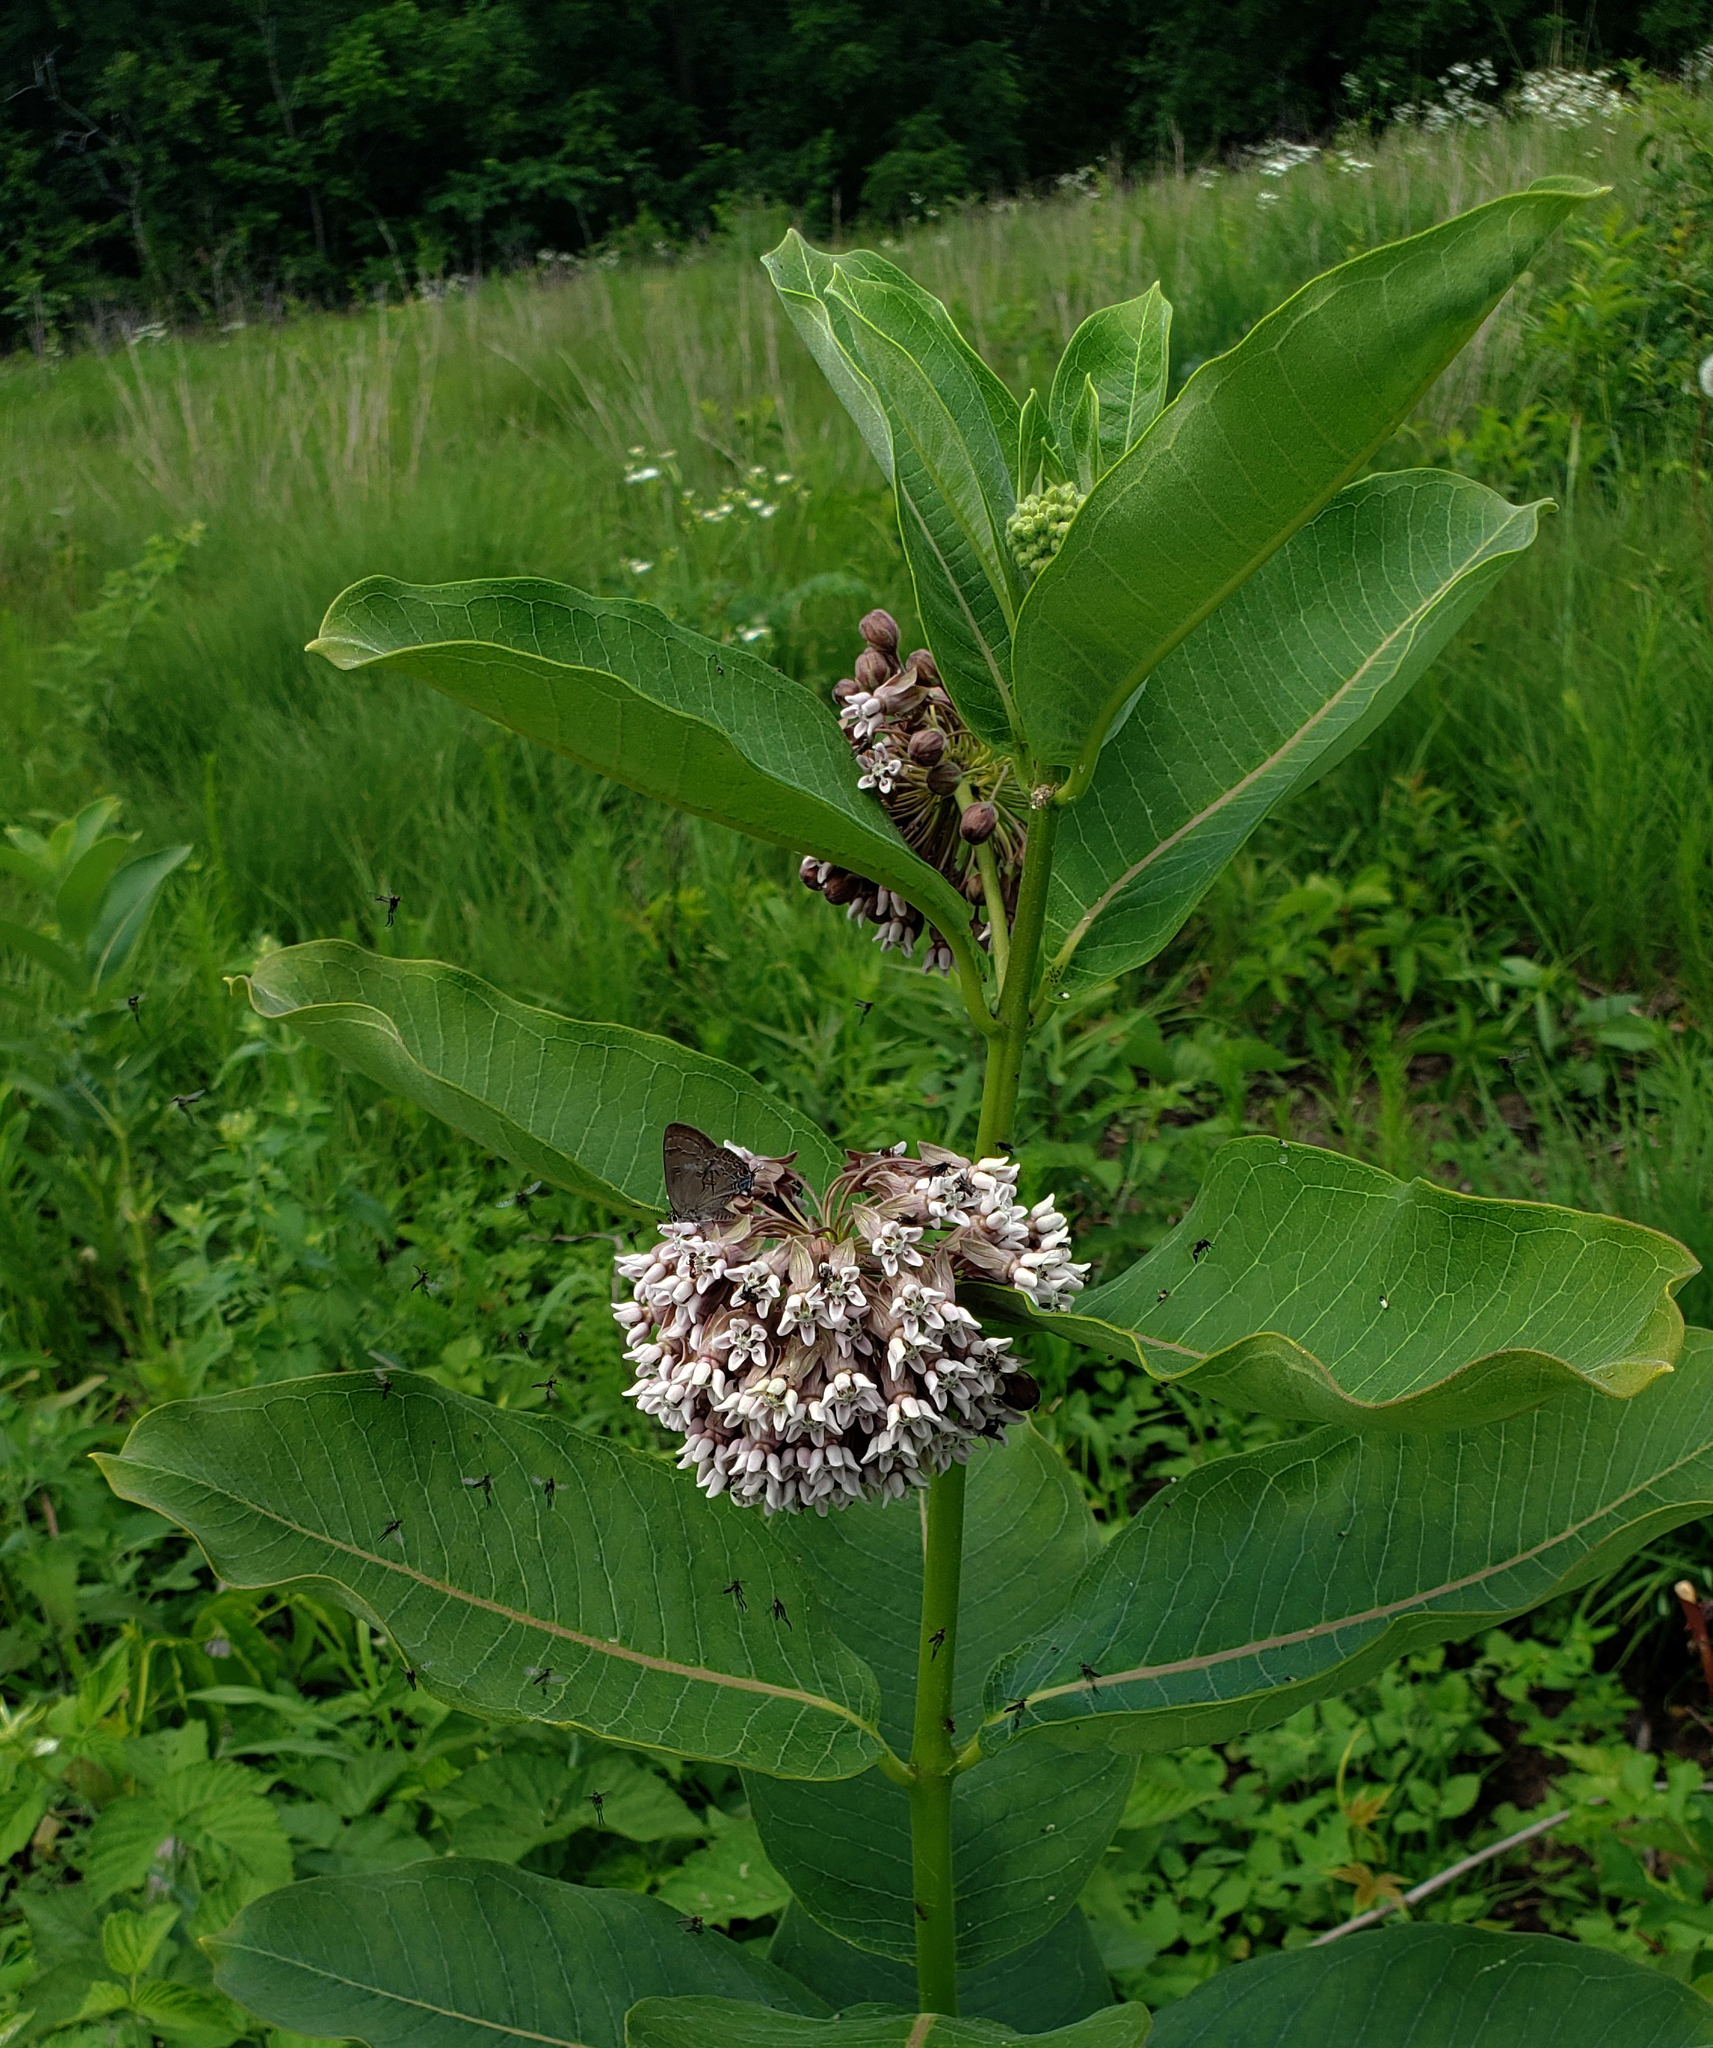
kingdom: Plantae
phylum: Tracheophyta
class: Magnoliopsida
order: Gentianales
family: Apocynaceae
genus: Asclepias
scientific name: Asclepias syriaca
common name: Common milkweed
